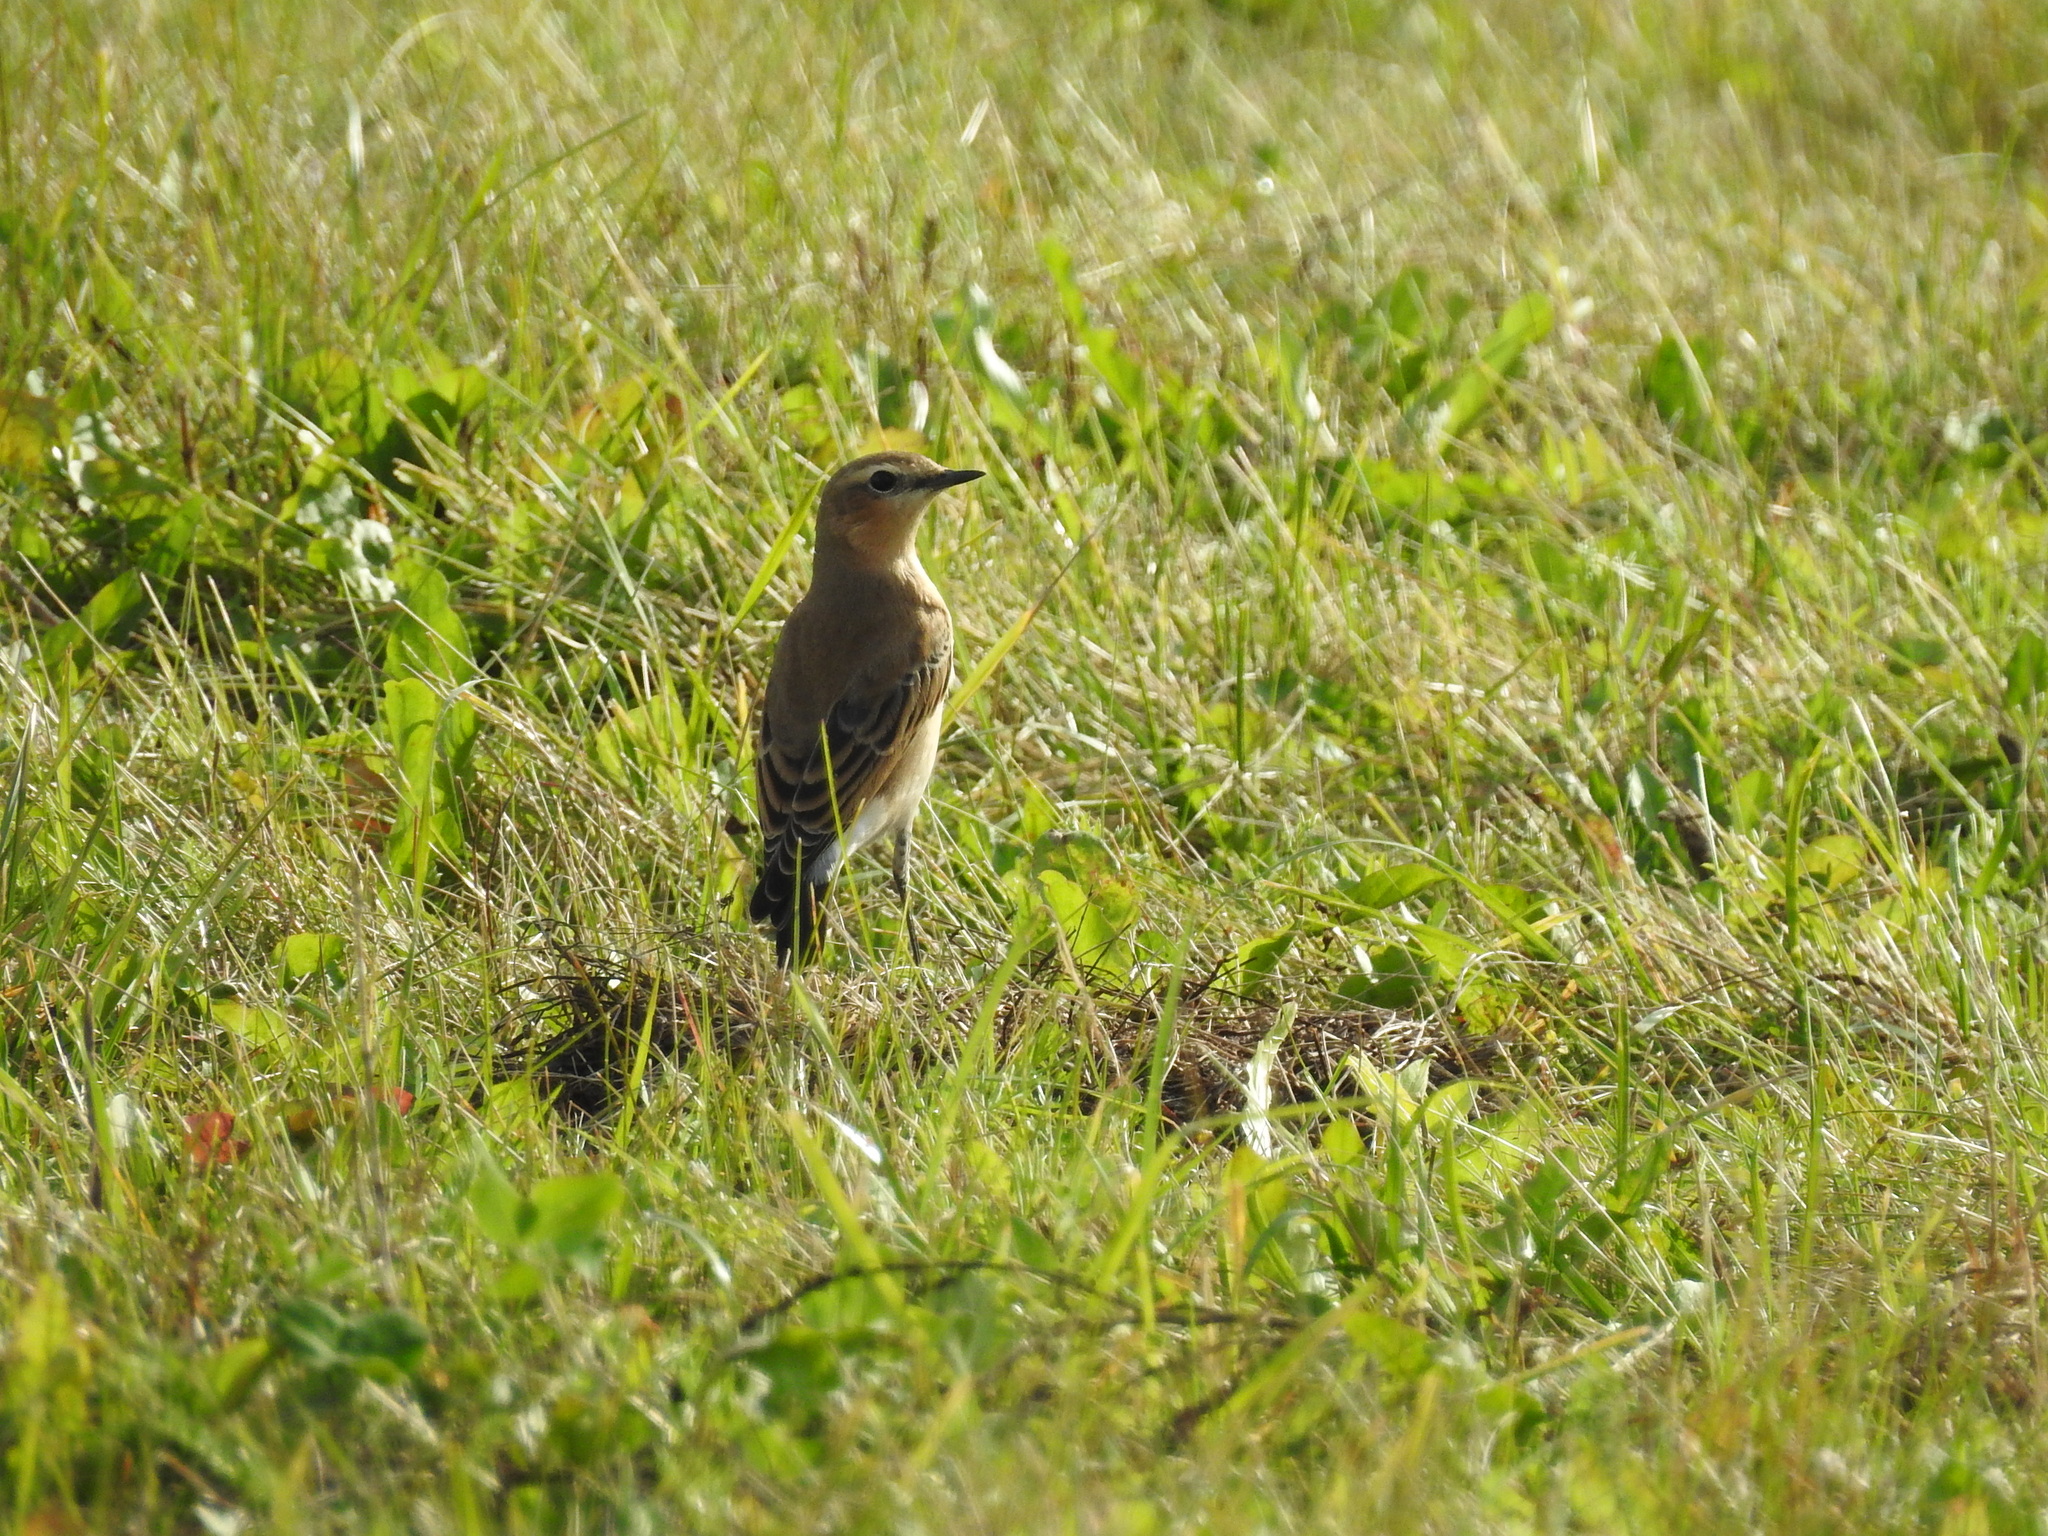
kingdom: Animalia
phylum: Chordata
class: Aves
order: Passeriformes
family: Muscicapidae
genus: Oenanthe
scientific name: Oenanthe oenanthe
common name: Northern wheatear
